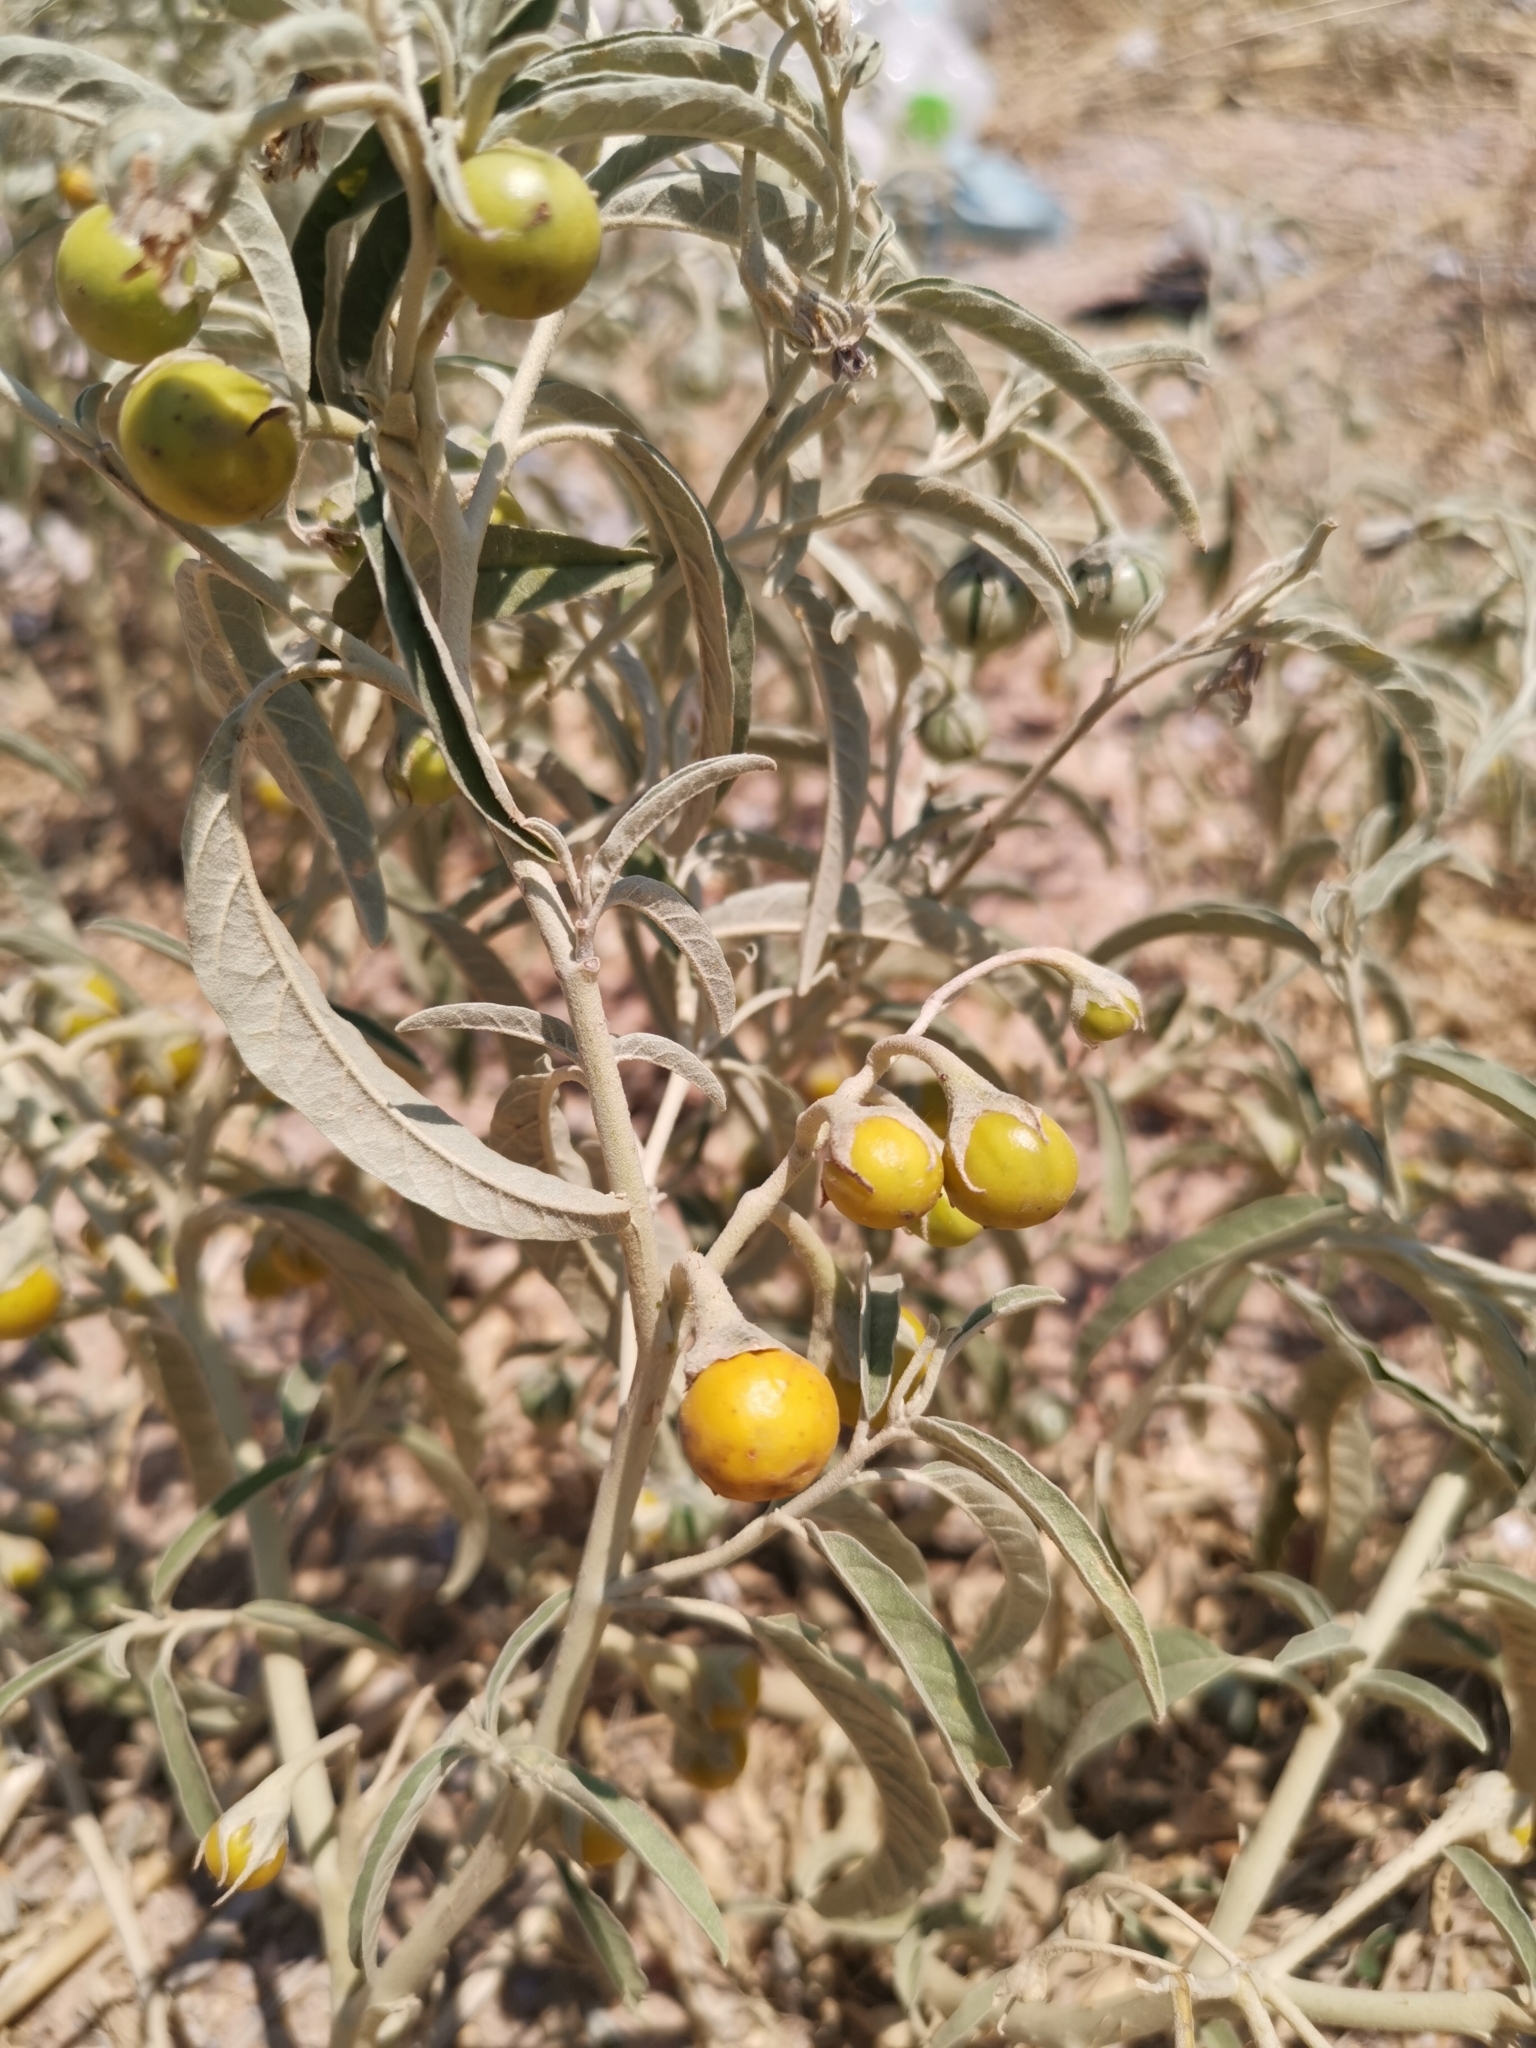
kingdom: Plantae
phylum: Tracheophyta
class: Magnoliopsida
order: Solanales
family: Solanaceae
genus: Solanum
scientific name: Solanum elaeagnifolium
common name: Silverleaf nightshade
